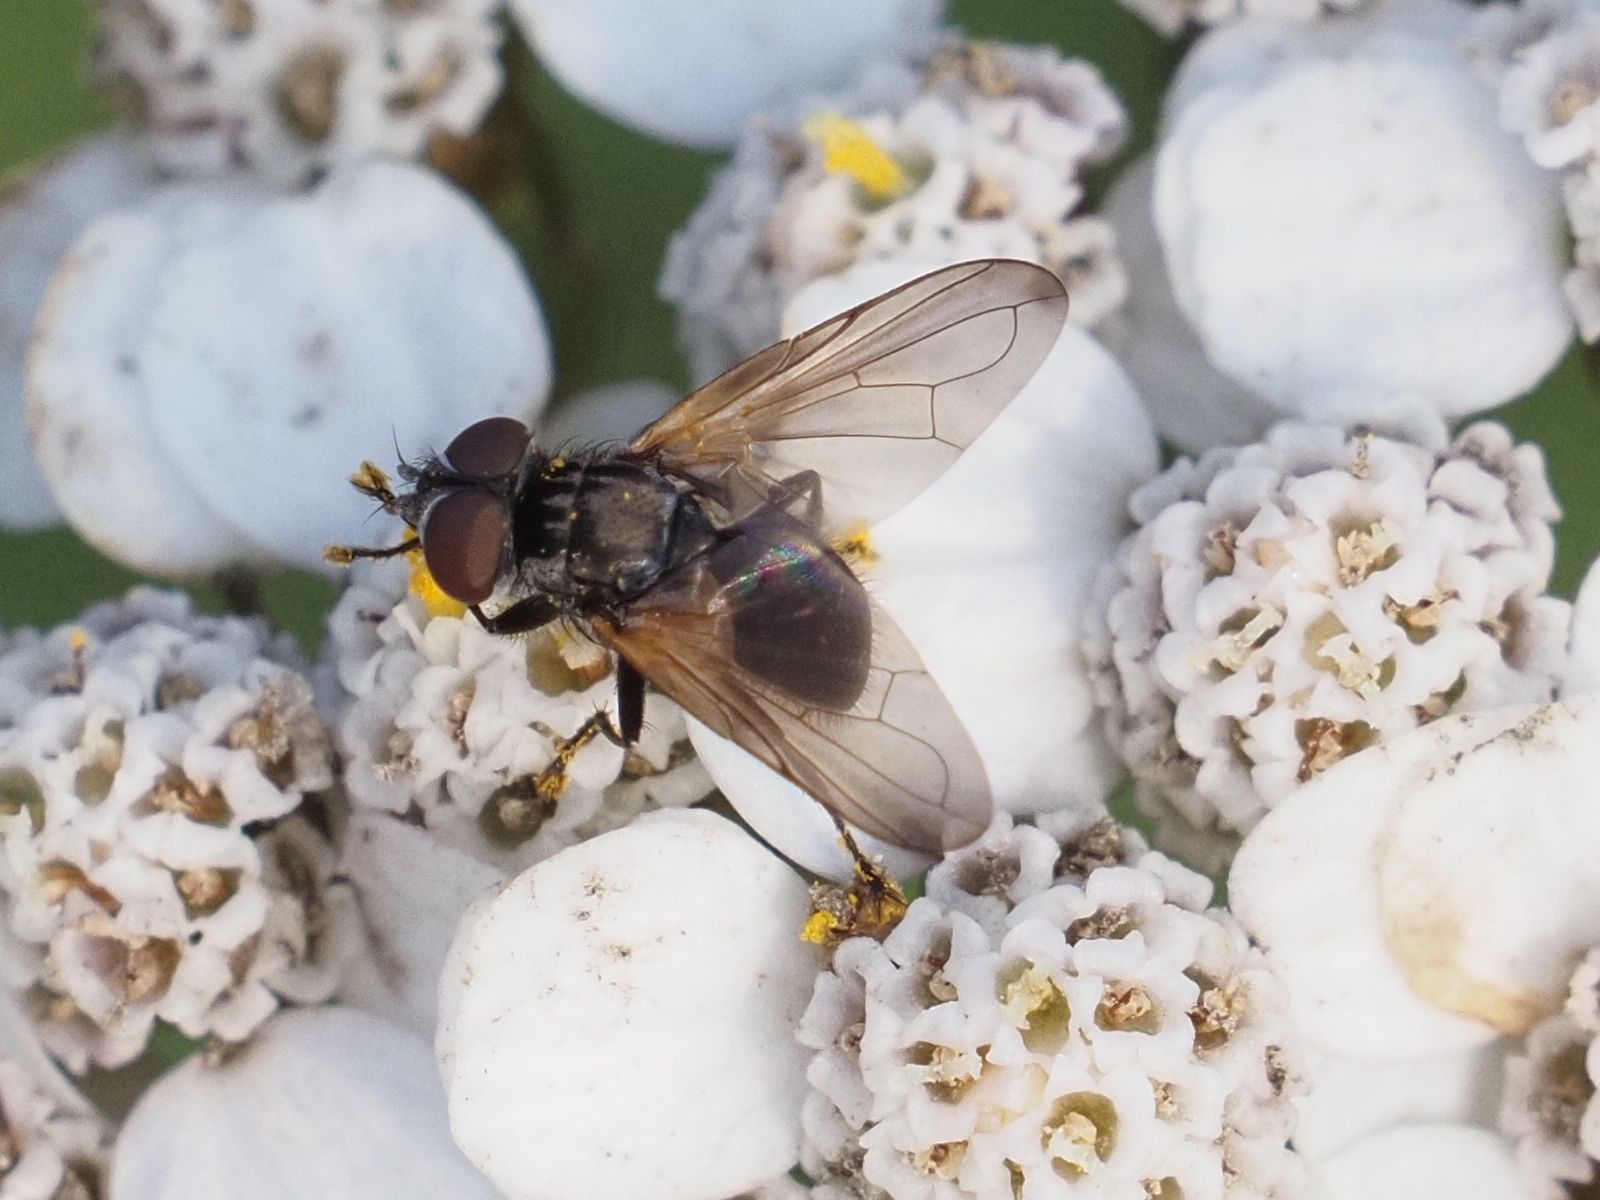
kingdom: Animalia
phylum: Arthropoda
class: Insecta
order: Diptera
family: Tachinidae
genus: Phasia
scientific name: Phasia obesa
